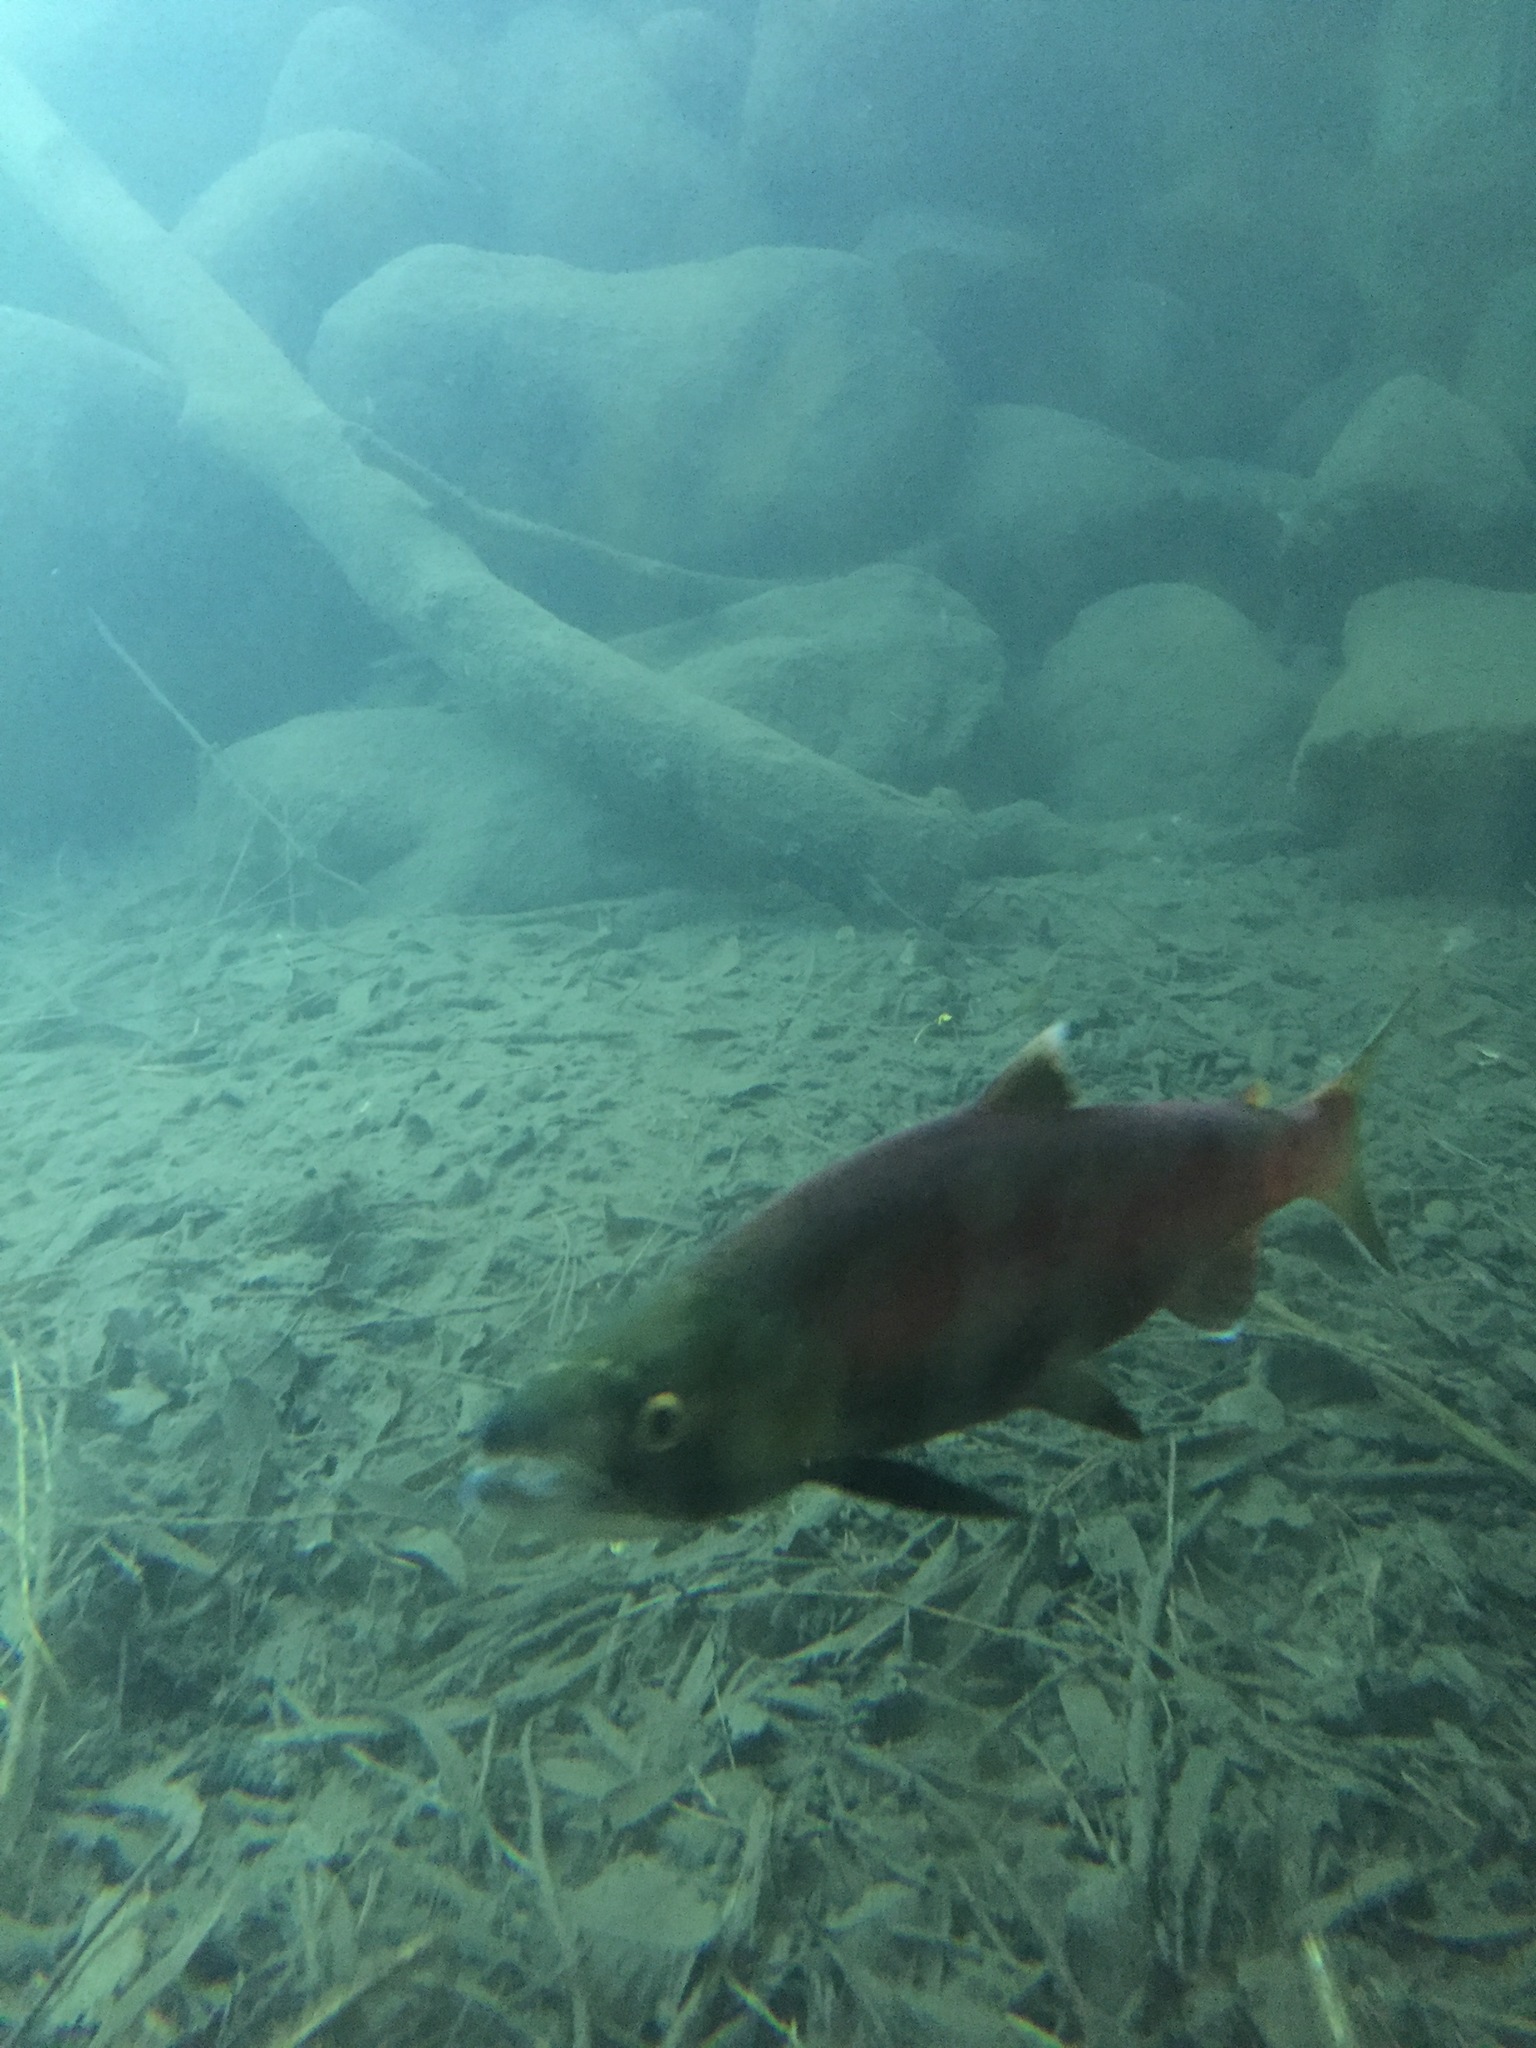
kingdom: Animalia
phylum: Chordata
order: Salmoniformes
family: Salmonidae
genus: Oncorhynchus
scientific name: Oncorhynchus nerka
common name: Sockeye salmon
